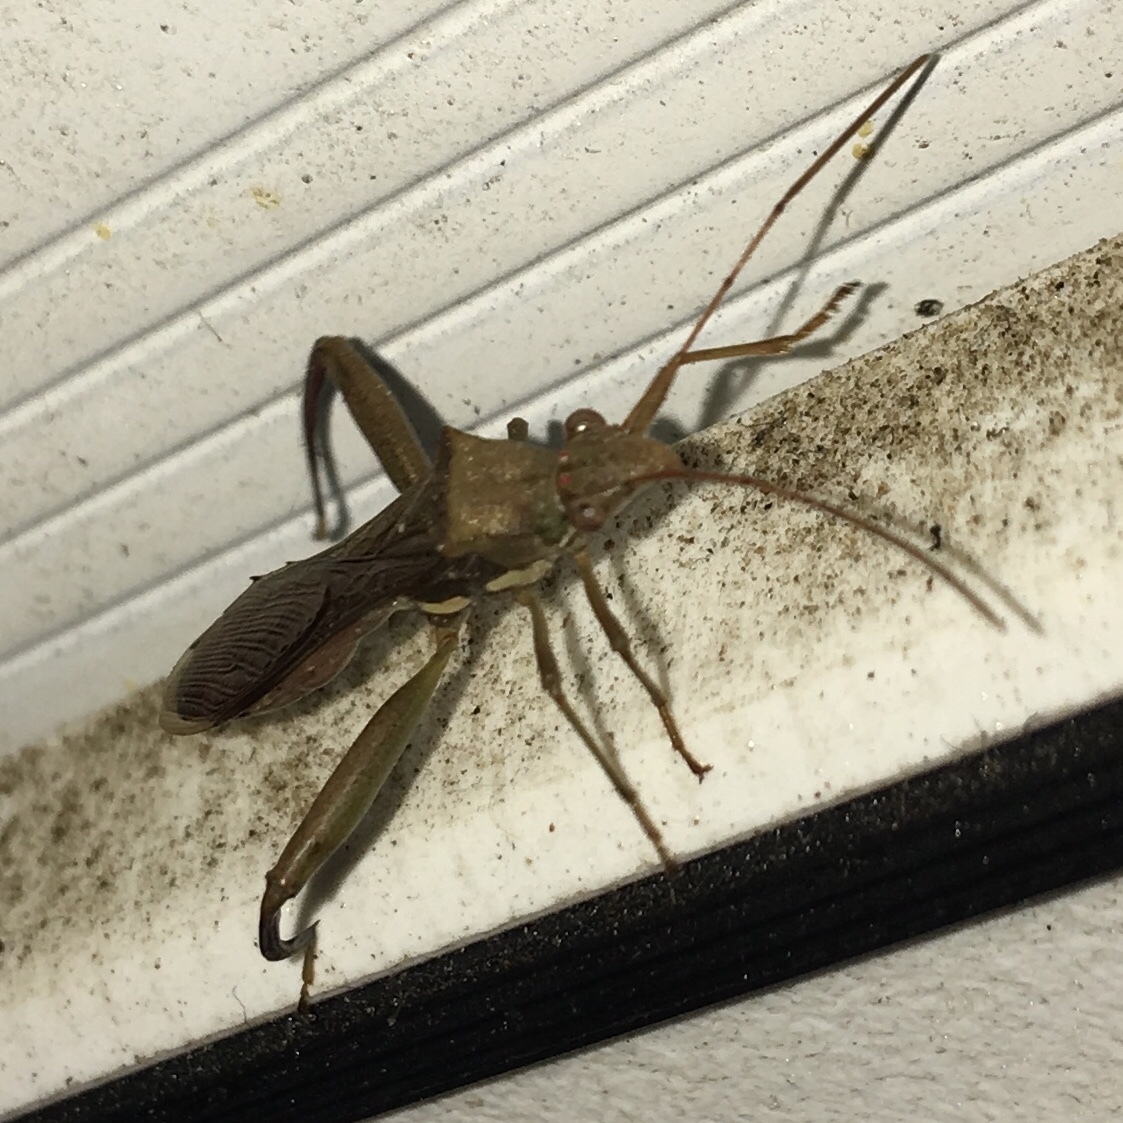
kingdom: Animalia
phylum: Arthropoda
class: Insecta
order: Hemiptera
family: Alydidae
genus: Hyalymenus
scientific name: Hyalymenus tarsatus
